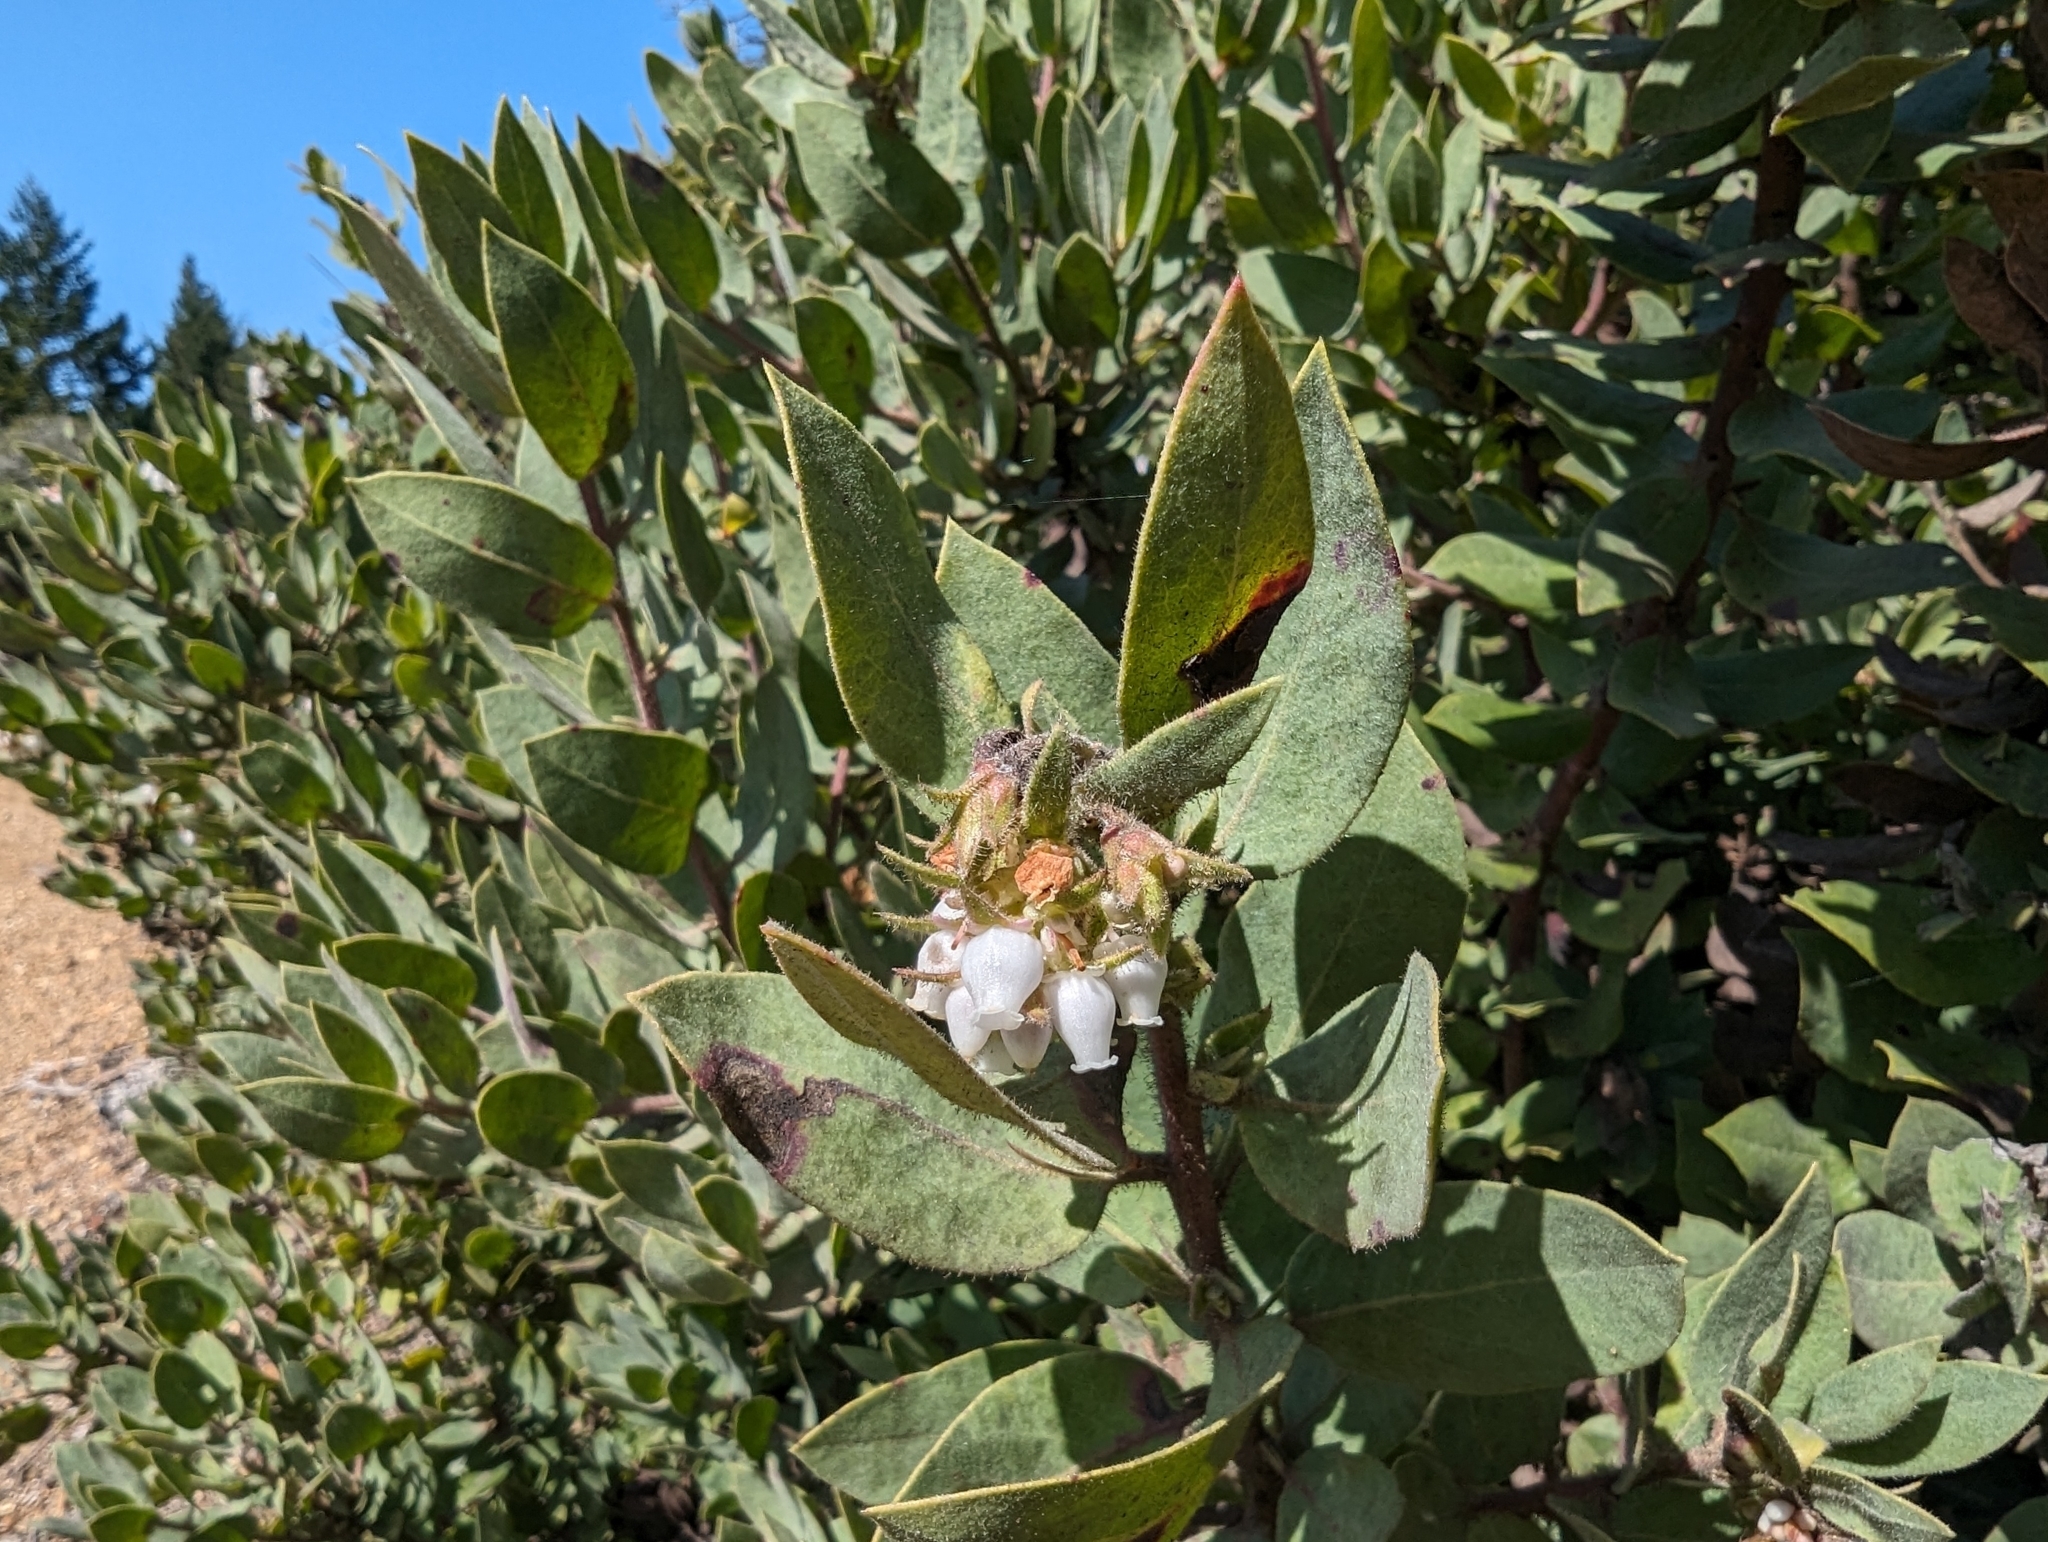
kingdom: Plantae
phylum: Tracheophyta
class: Magnoliopsida
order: Ericales
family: Ericaceae
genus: Arctostaphylos
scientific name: Arctostaphylos glandulosa
